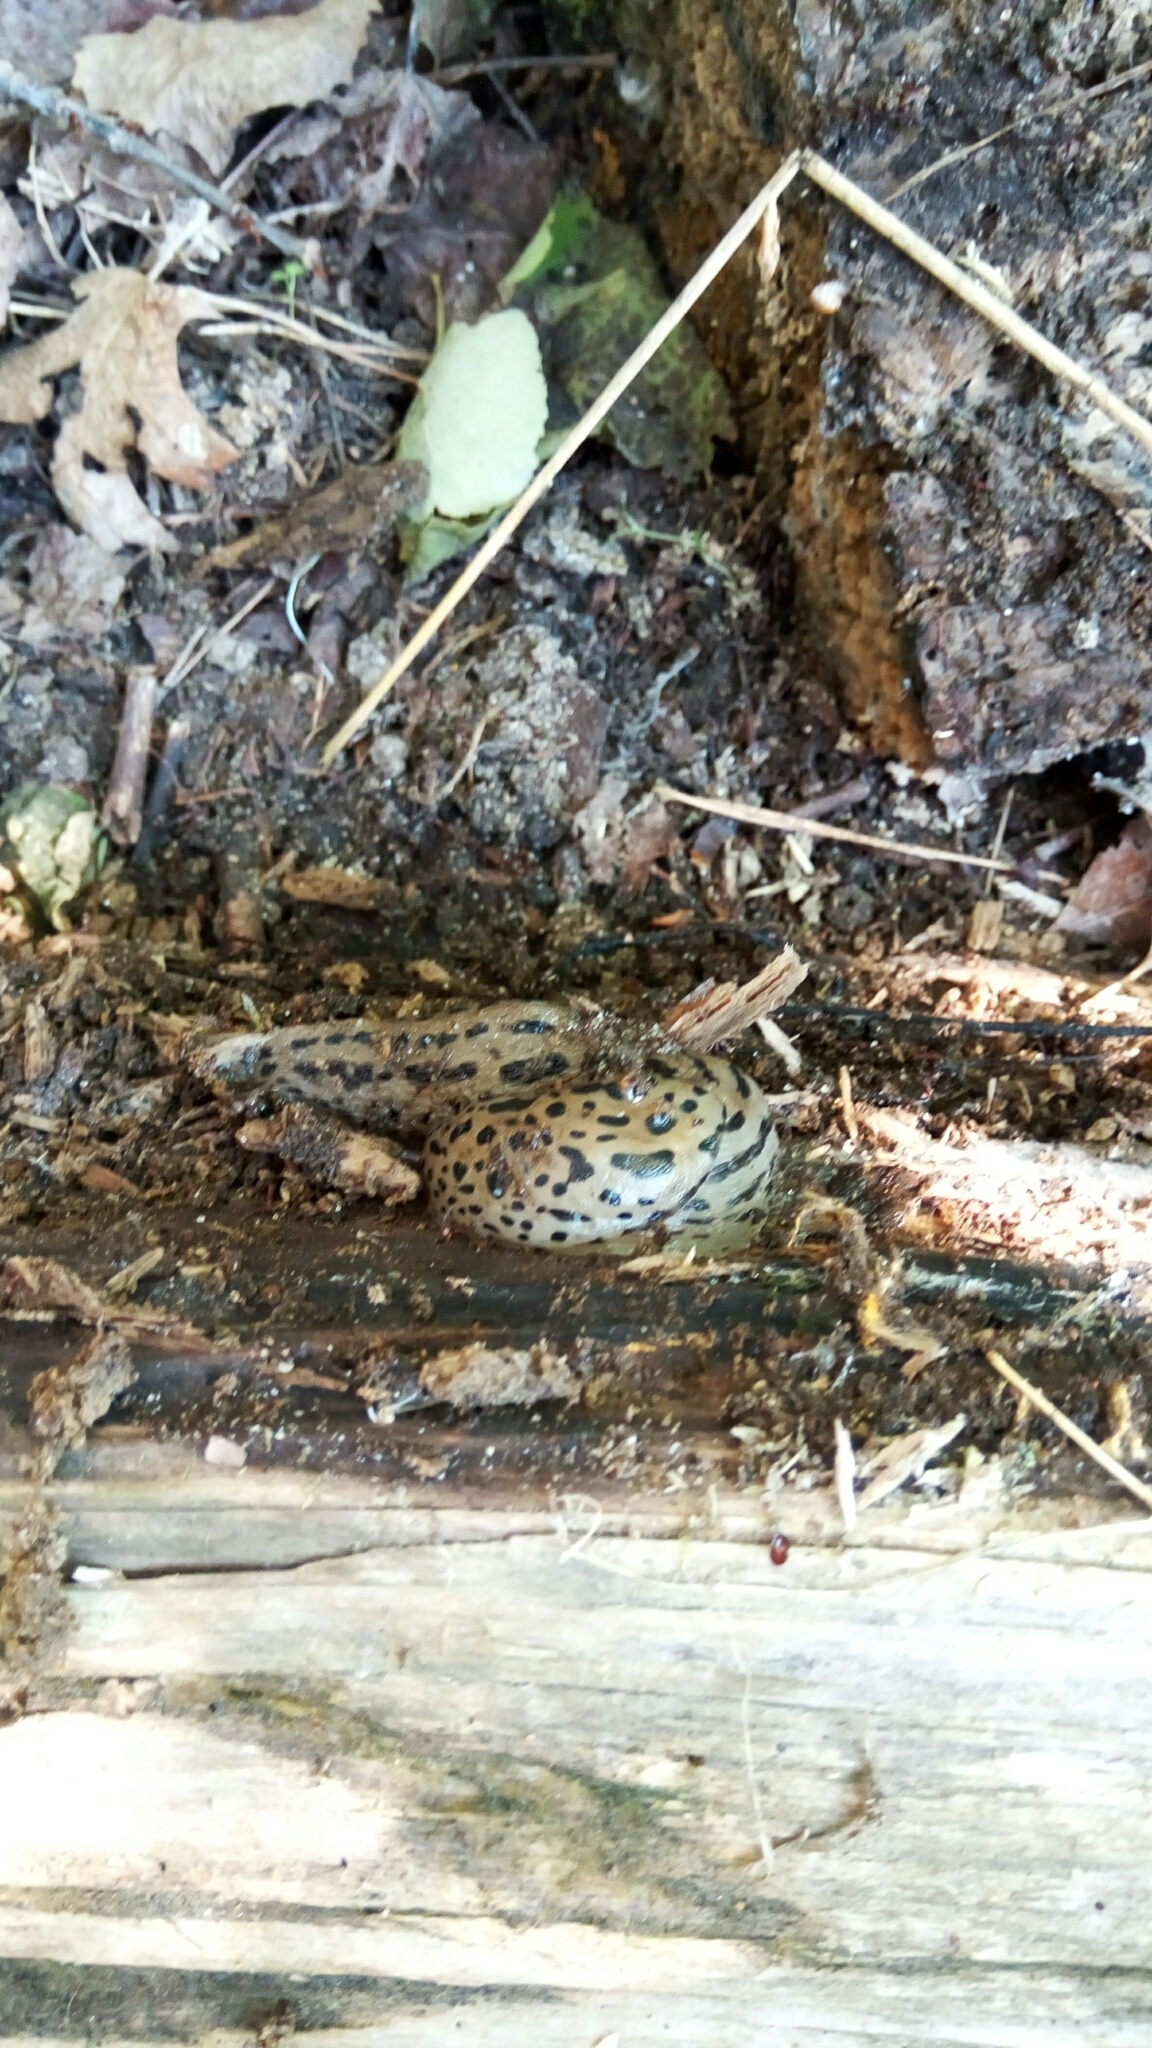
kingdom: Animalia
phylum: Mollusca
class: Gastropoda
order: Stylommatophora
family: Limacidae
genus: Limax
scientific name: Limax maximus
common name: Great grey slug
